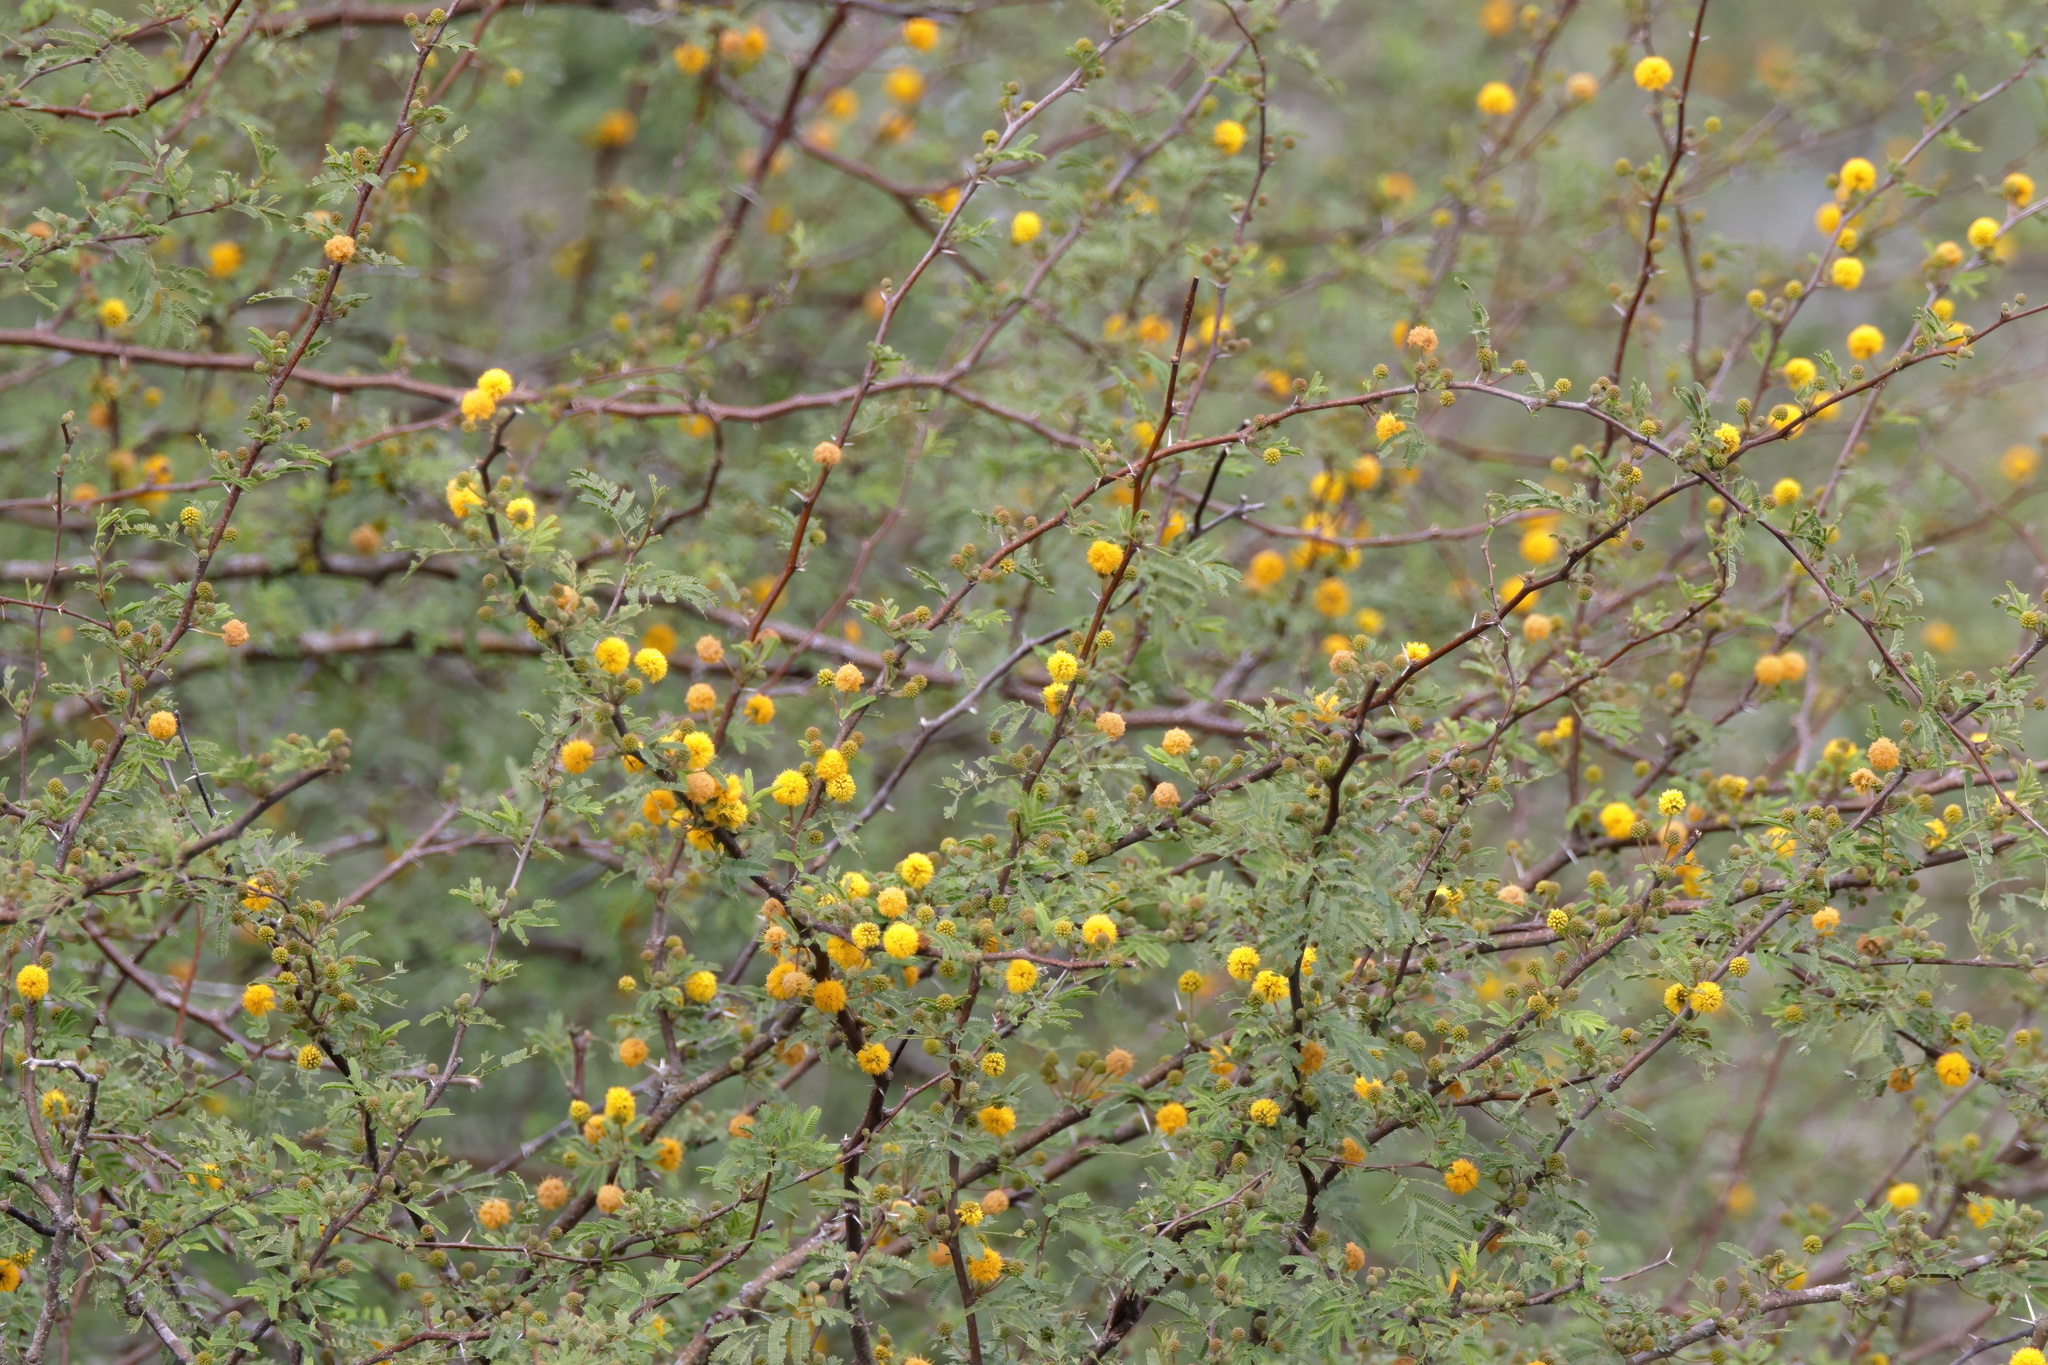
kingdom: Plantae
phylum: Tracheophyta
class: Magnoliopsida
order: Fabales
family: Fabaceae
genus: Vachellia
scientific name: Vachellia farnesiana
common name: Sweet acacia
